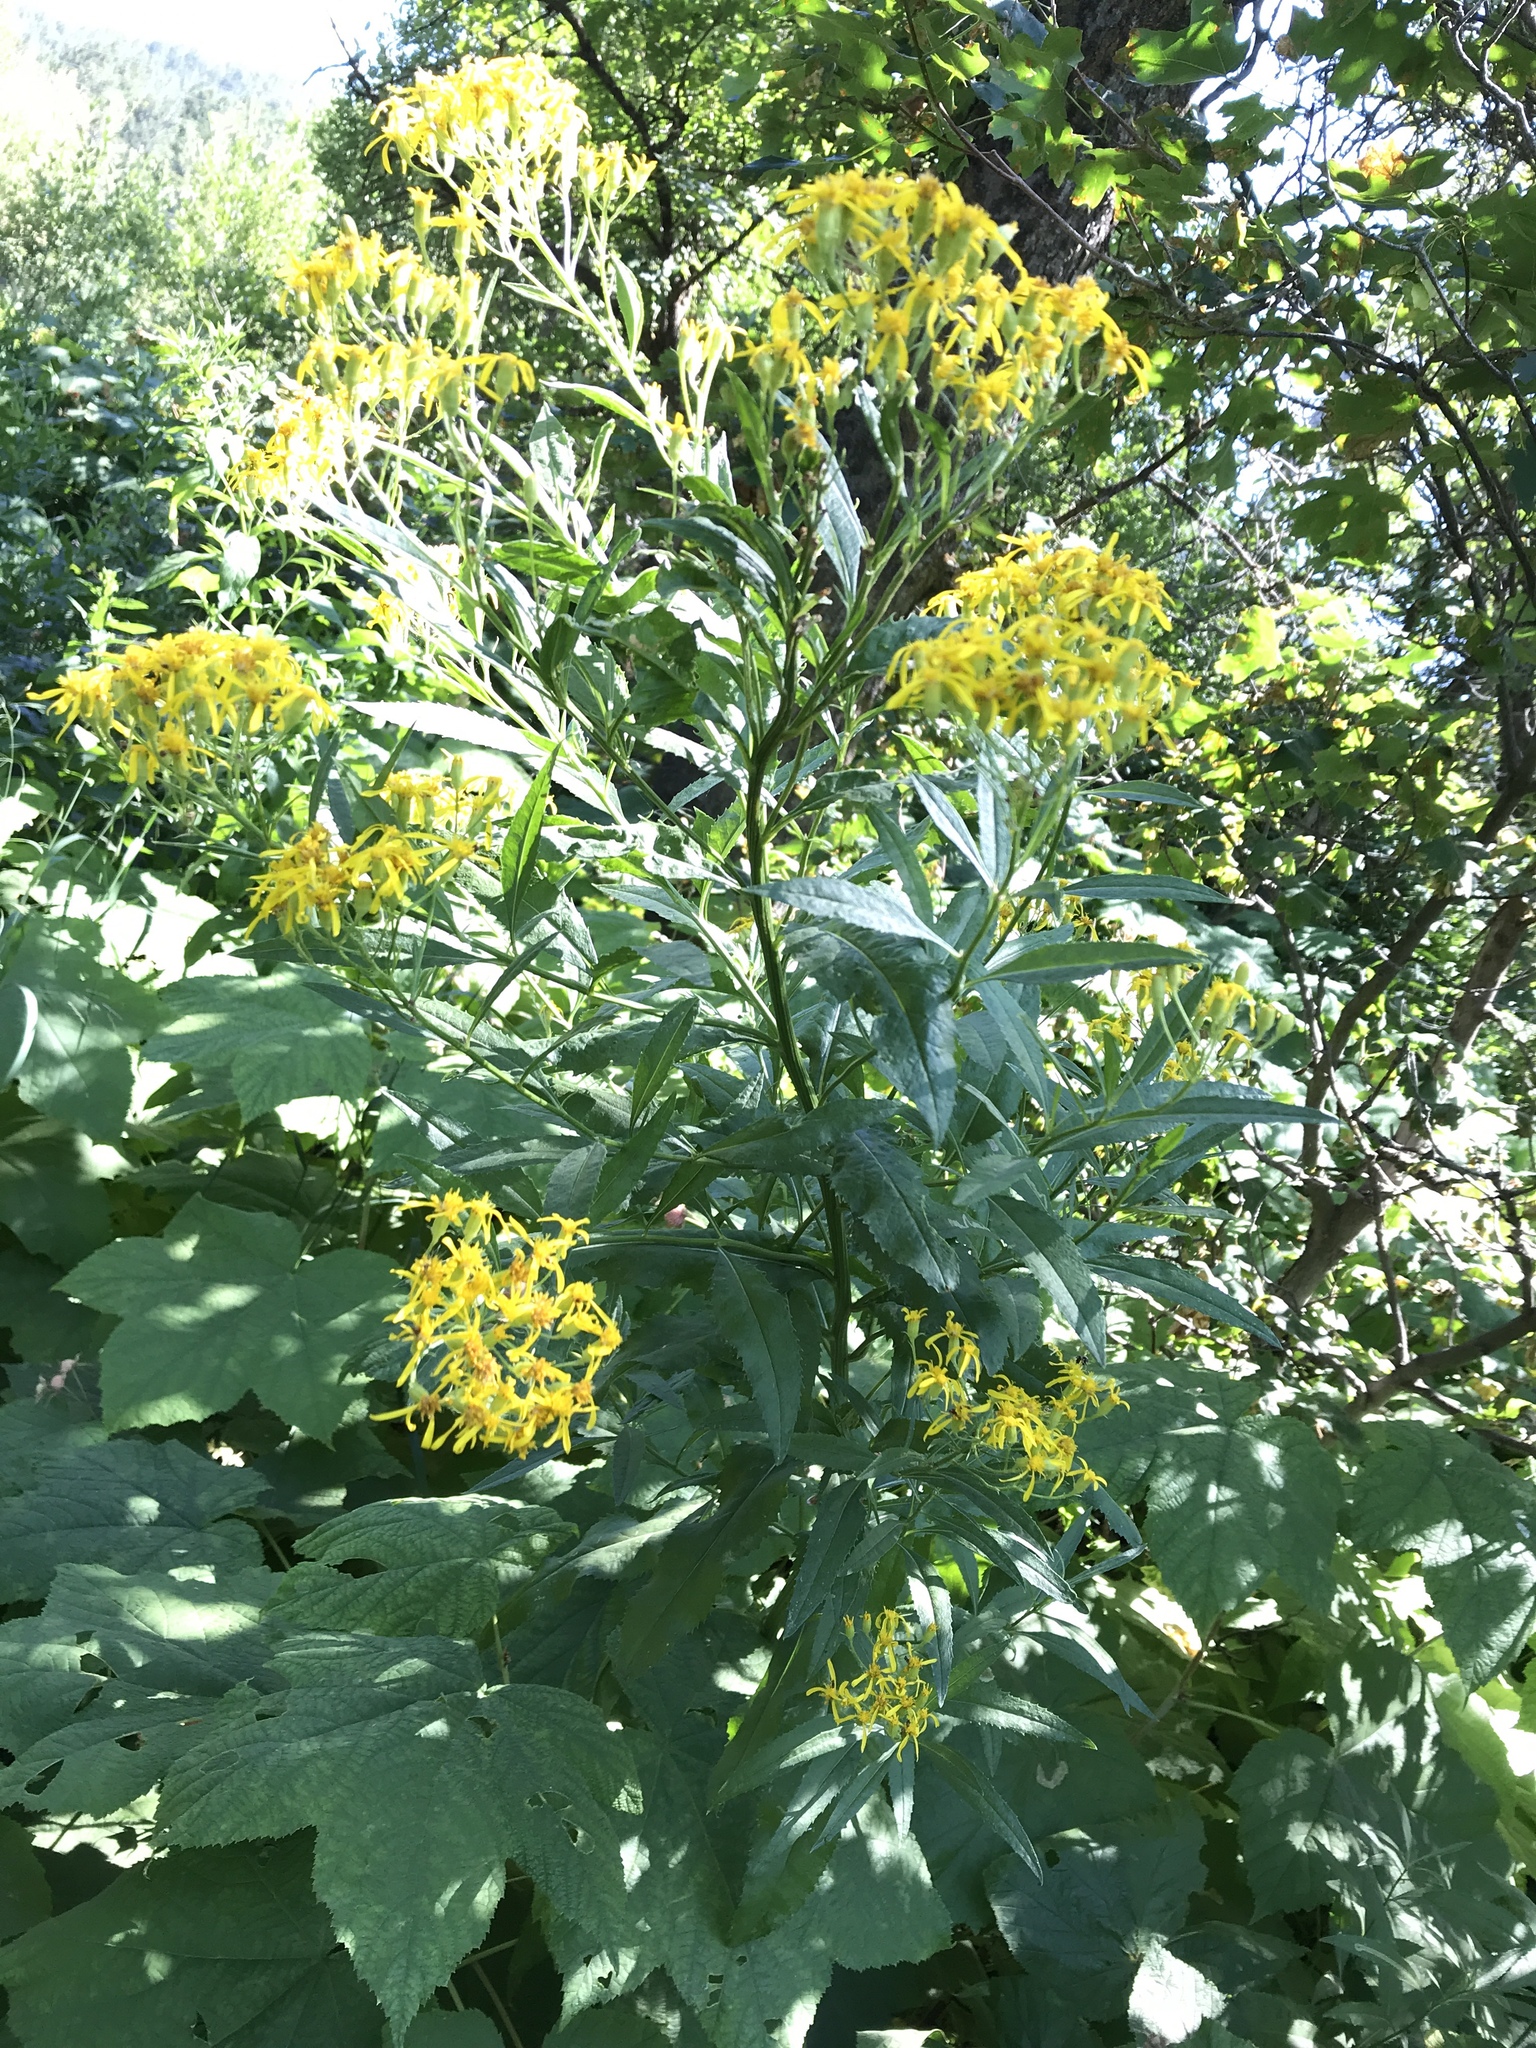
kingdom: Plantae
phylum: Tracheophyta
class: Magnoliopsida
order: Asterales
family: Asteraceae
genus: Senecio
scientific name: Senecio serra
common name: Tall ragwort
